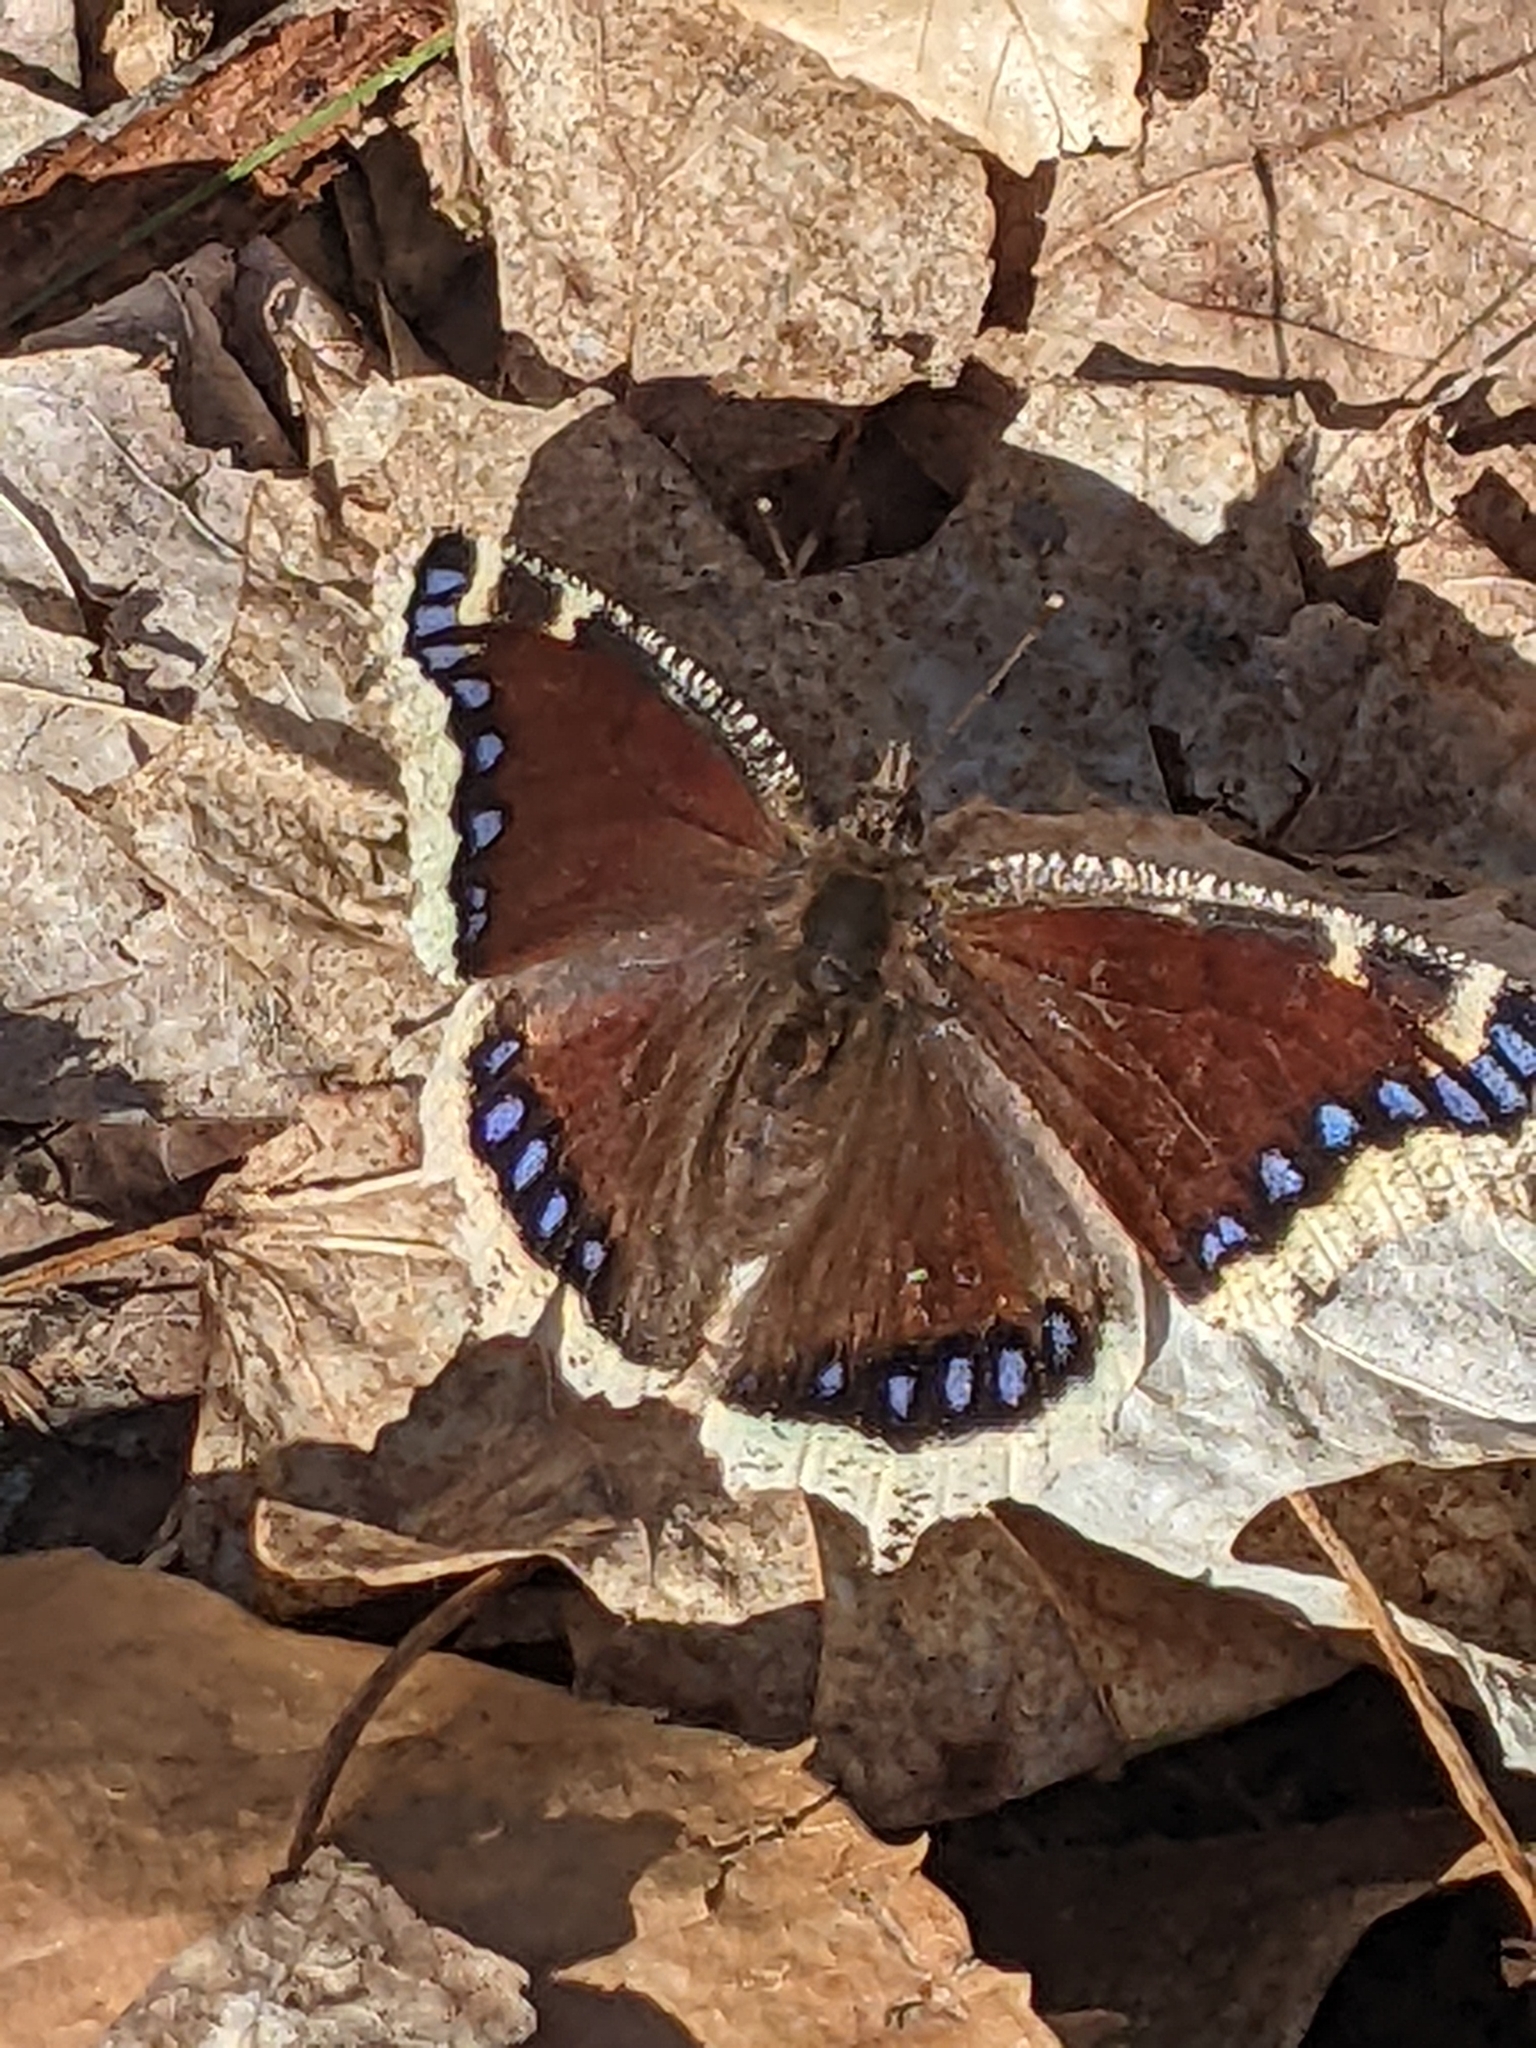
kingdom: Animalia
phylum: Arthropoda
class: Insecta
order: Lepidoptera
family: Nymphalidae
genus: Nymphalis
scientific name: Nymphalis antiopa
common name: Camberwell beauty
